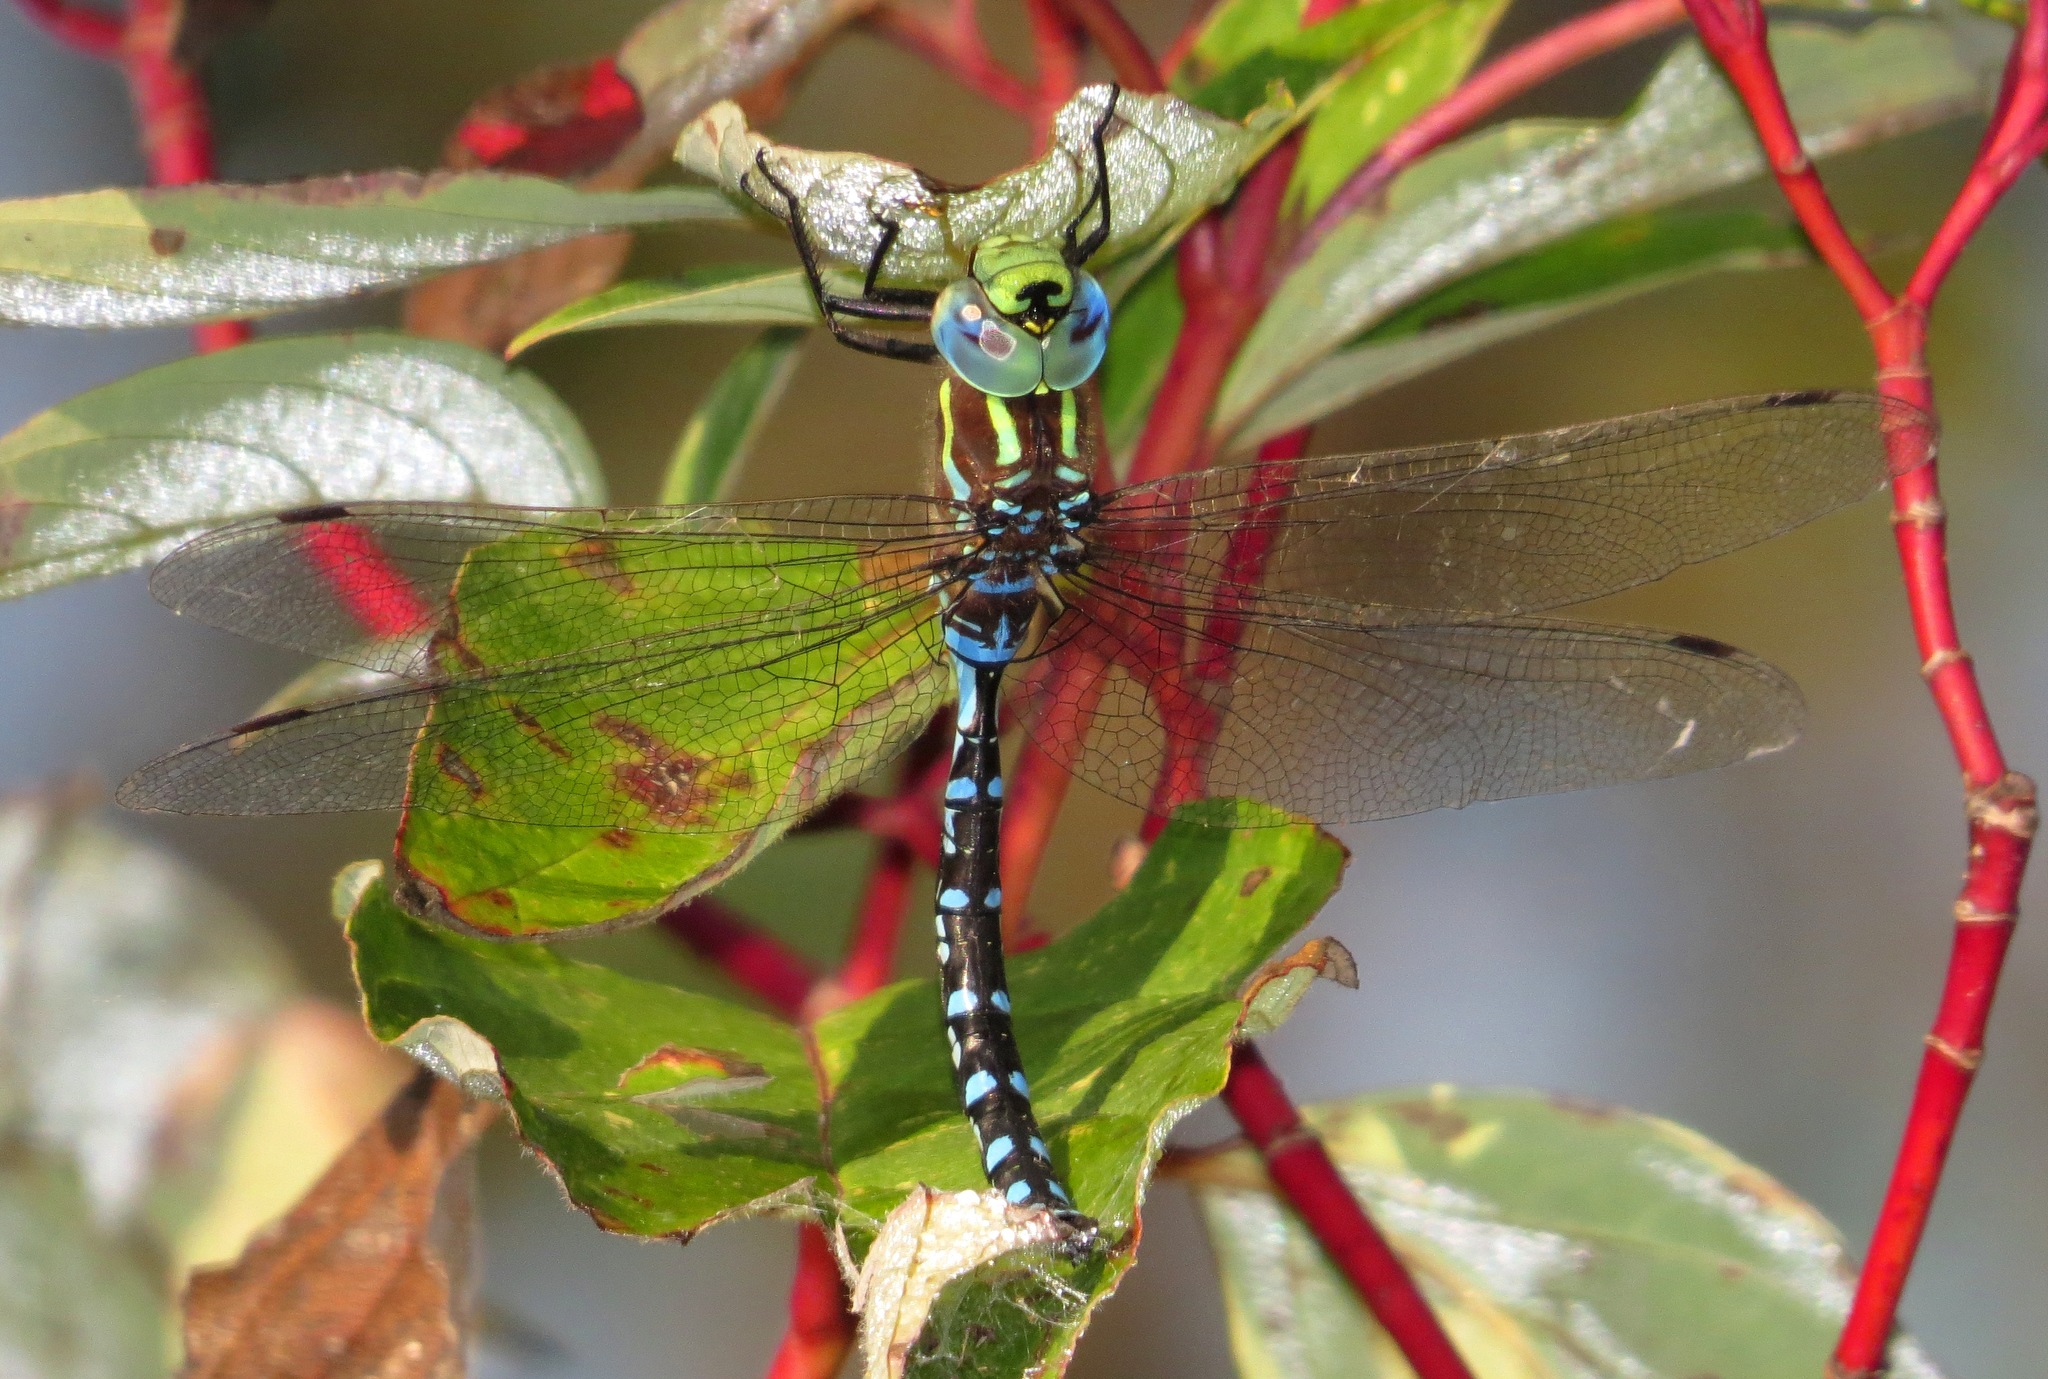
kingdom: Animalia
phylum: Arthropoda
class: Insecta
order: Odonata
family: Aeshnidae
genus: Aeshna
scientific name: Aeshna constricta
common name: Lance-tipped darner
